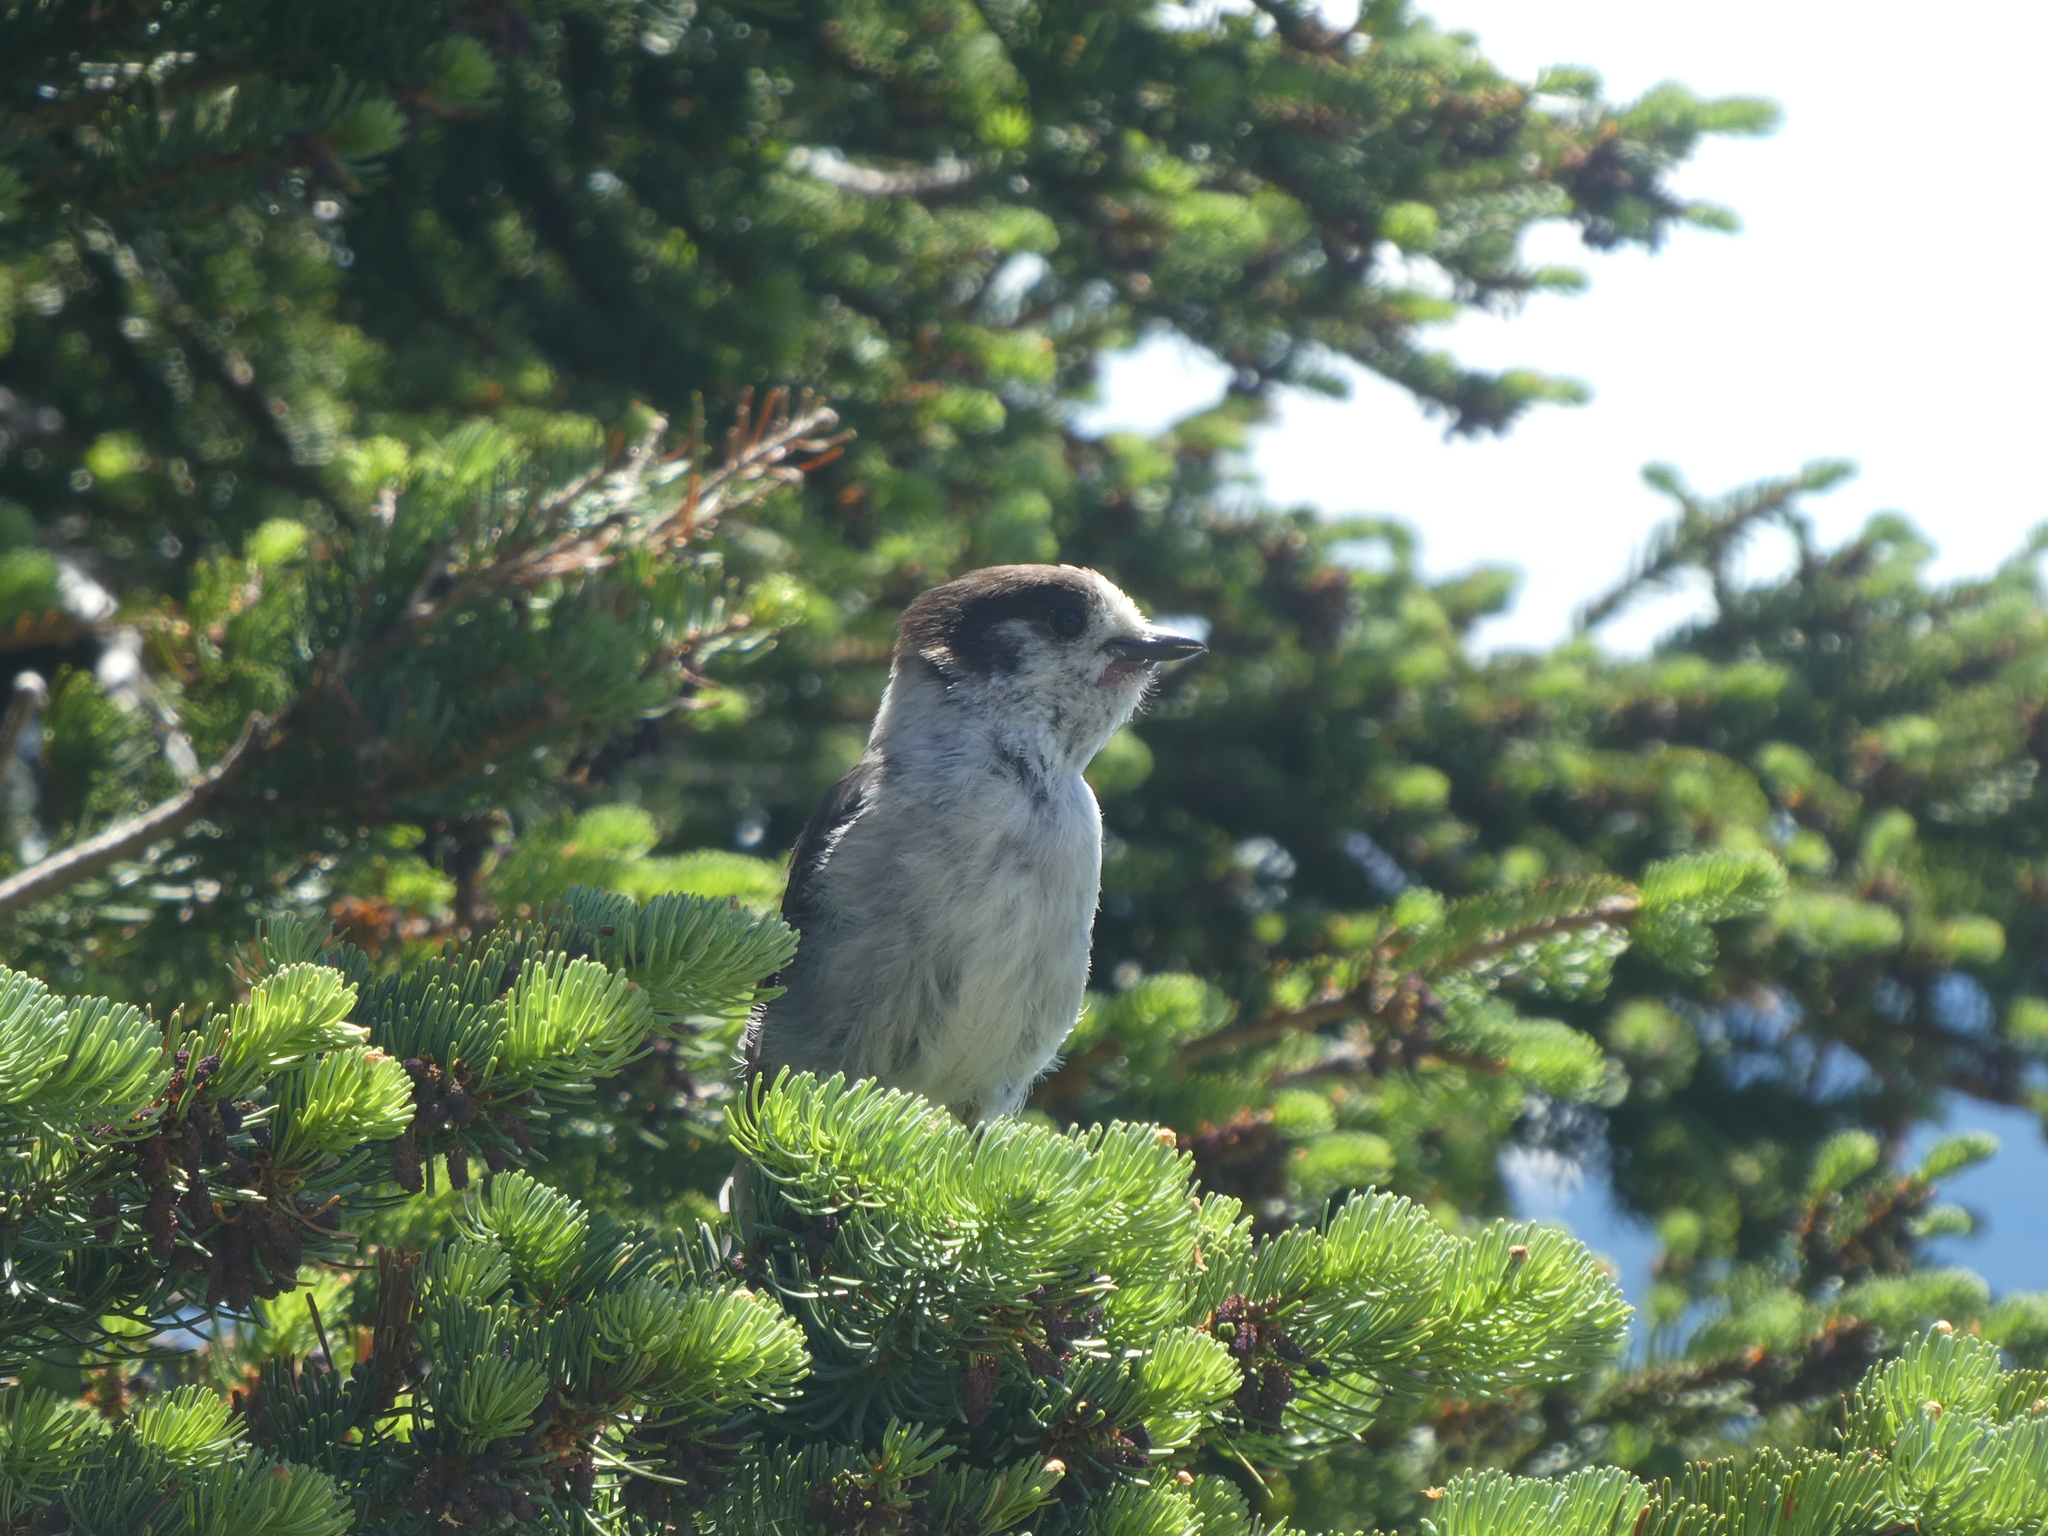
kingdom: Animalia
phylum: Chordata
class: Aves
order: Passeriformes
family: Corvidae
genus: Perisoreus
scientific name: Perisoreus canadensis
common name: Gray jay
